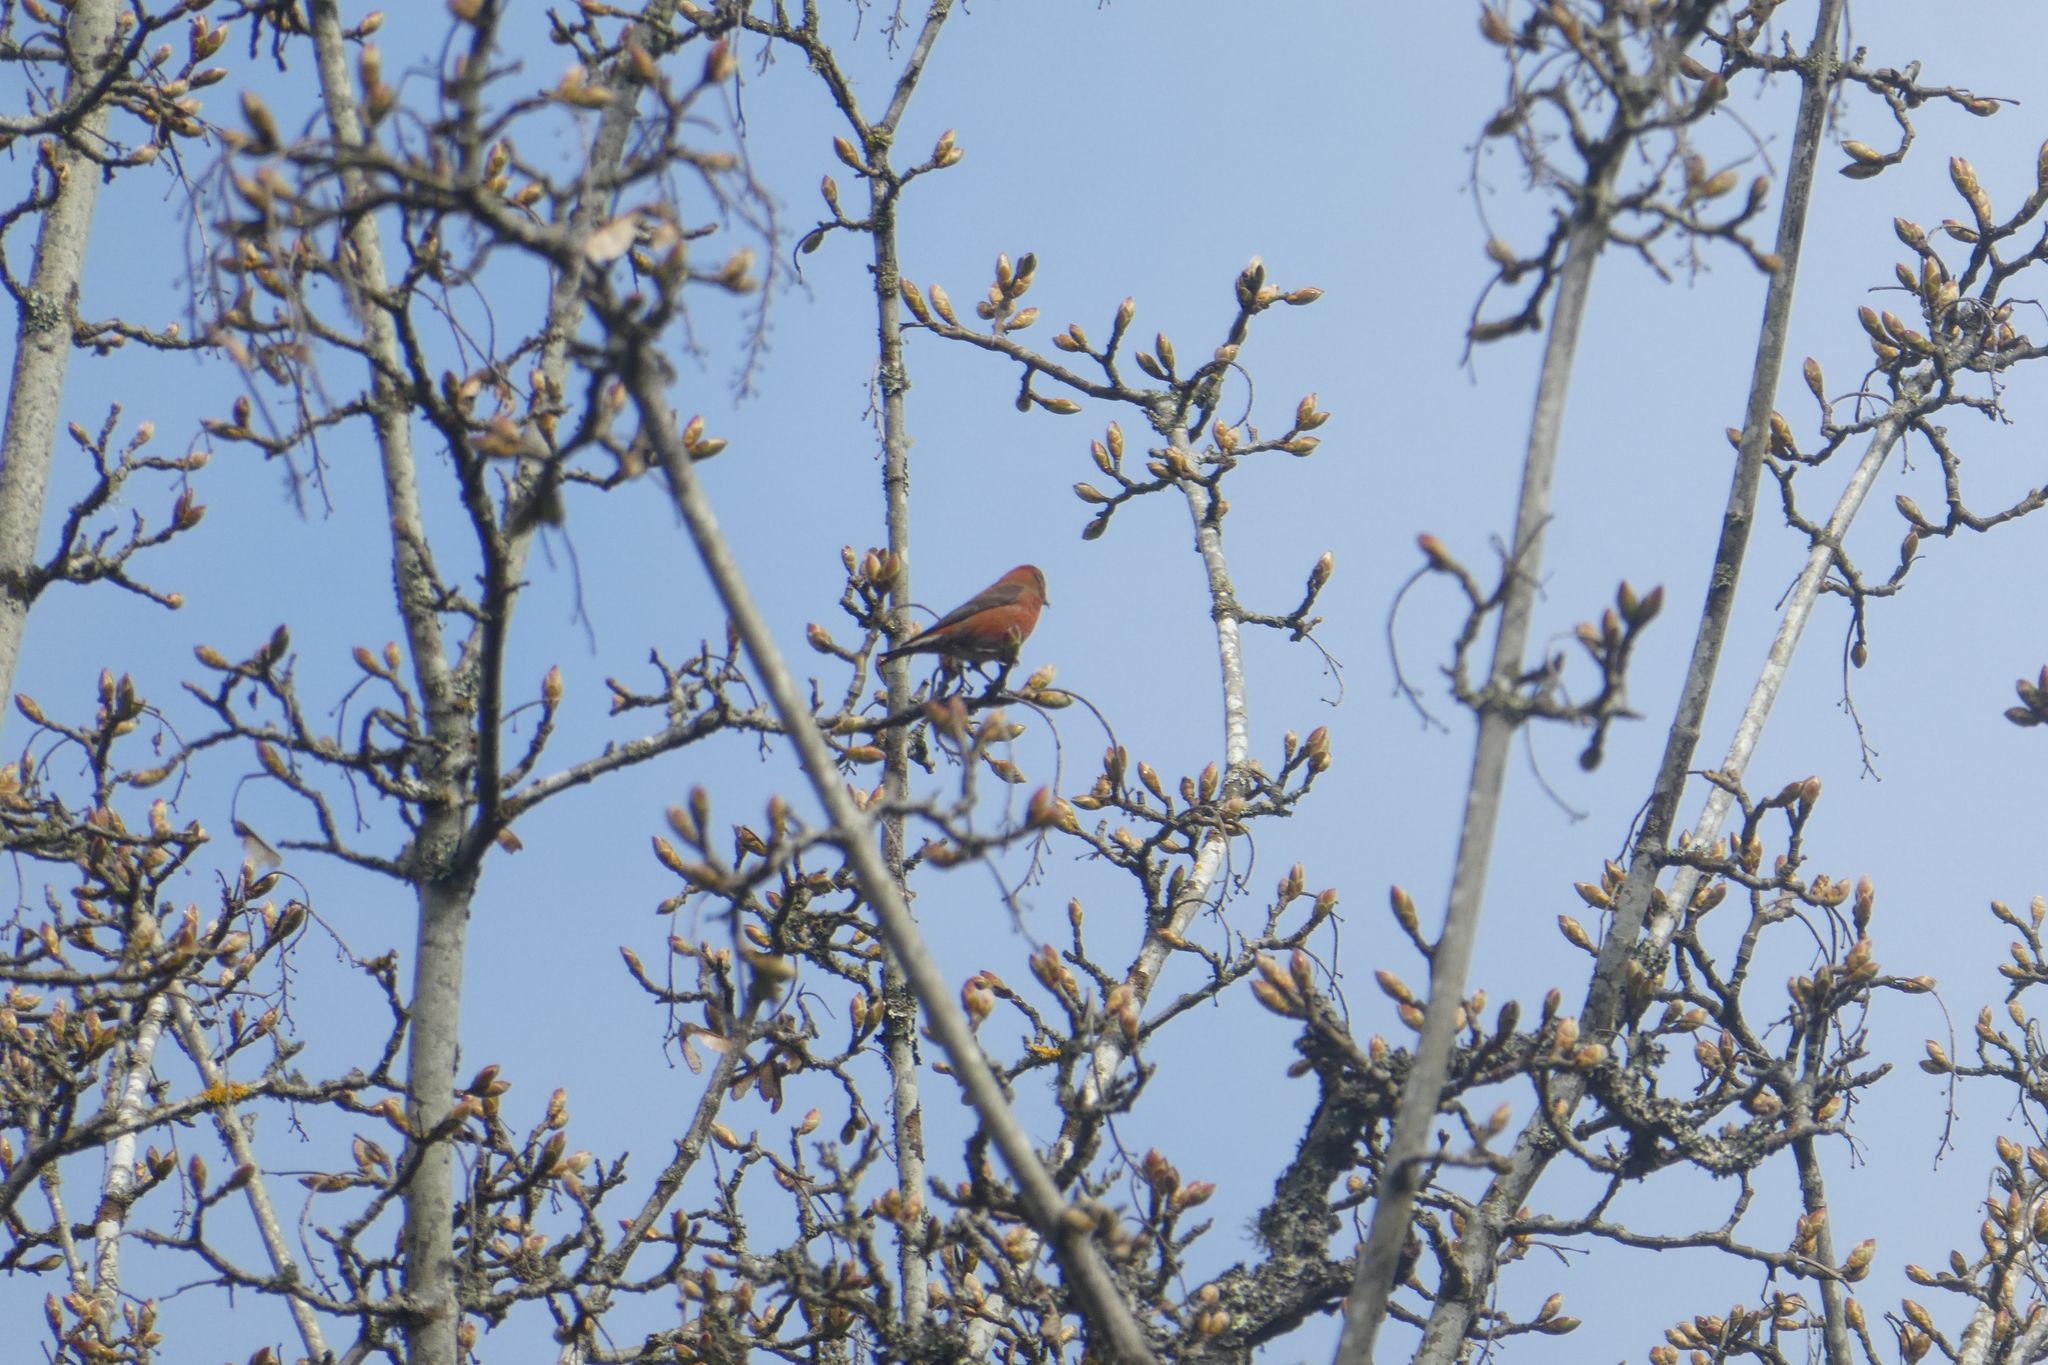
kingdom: Animalia
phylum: Chordata
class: Aves
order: Passeriformes
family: Fringillidae
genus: Loxia
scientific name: Loxia curvirostra
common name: Red crossbill
